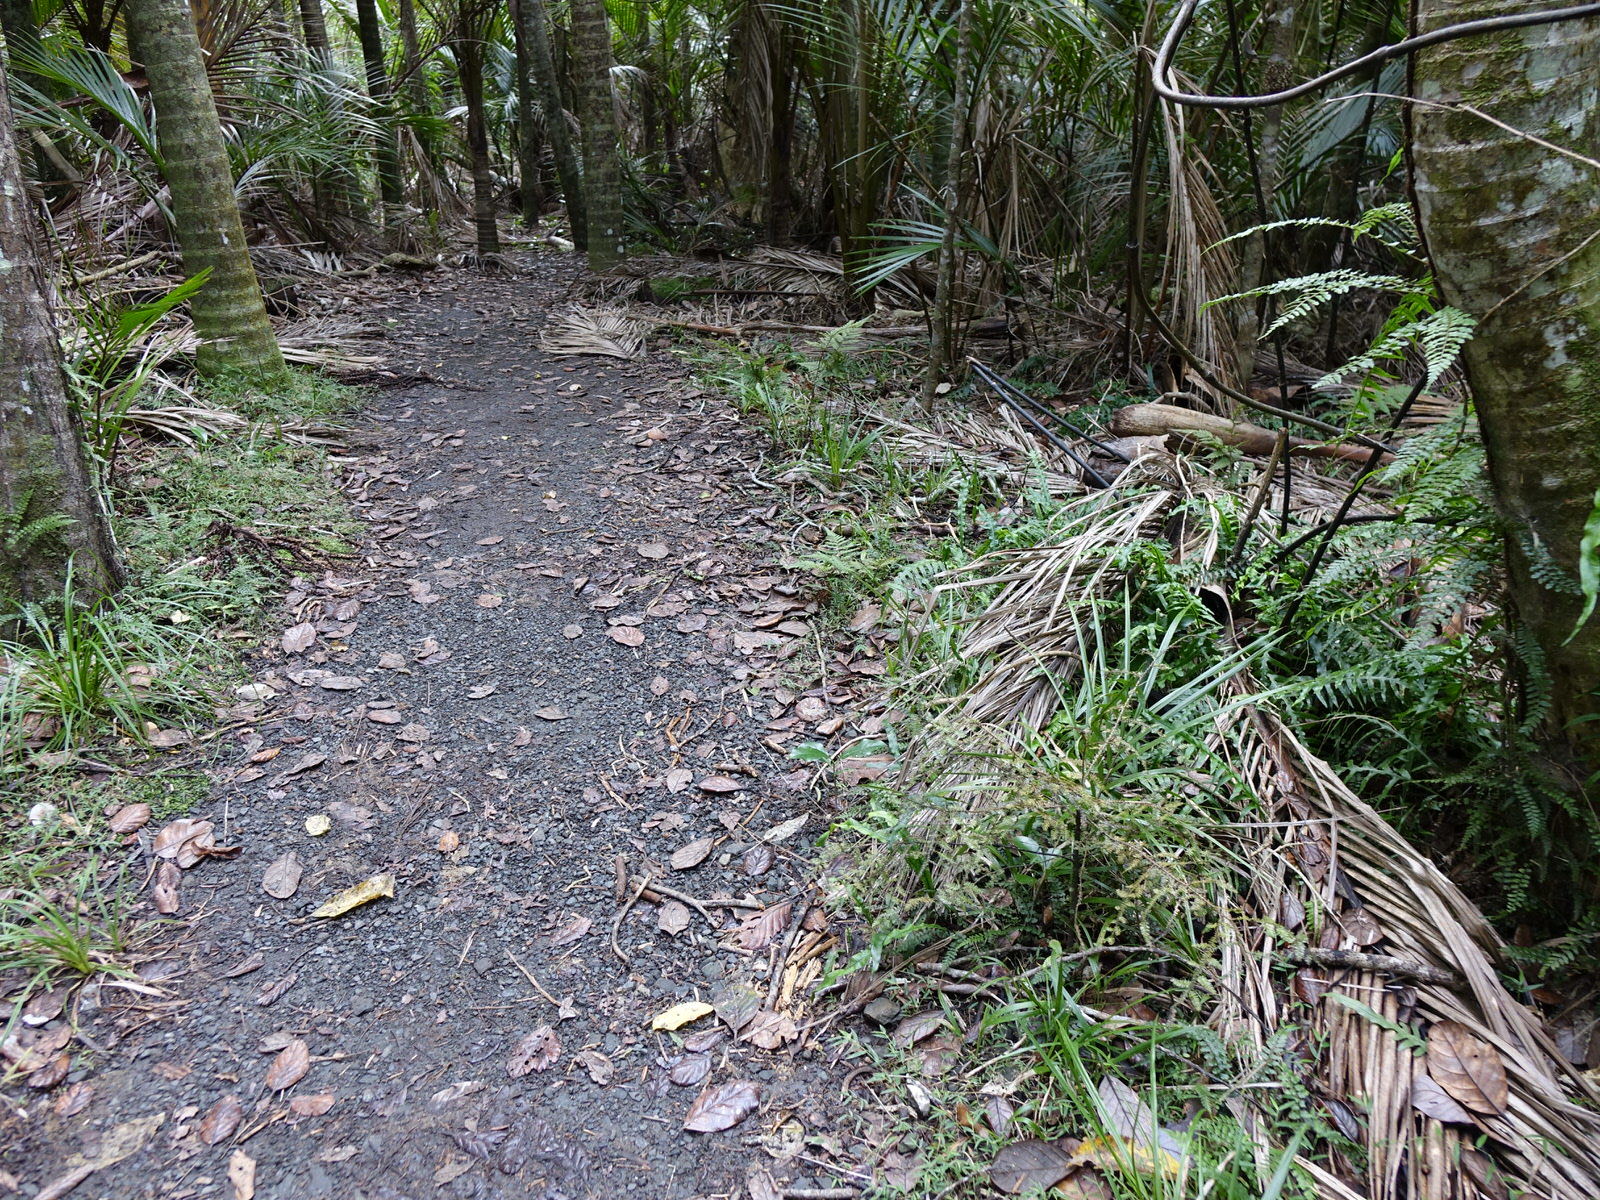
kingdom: Plantae
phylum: Tracheophyta
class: Pinopsida
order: Pinales
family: Podocarpaceae
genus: Dacrycarpus
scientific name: Dacrycarpus dacrydioides
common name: White pine
